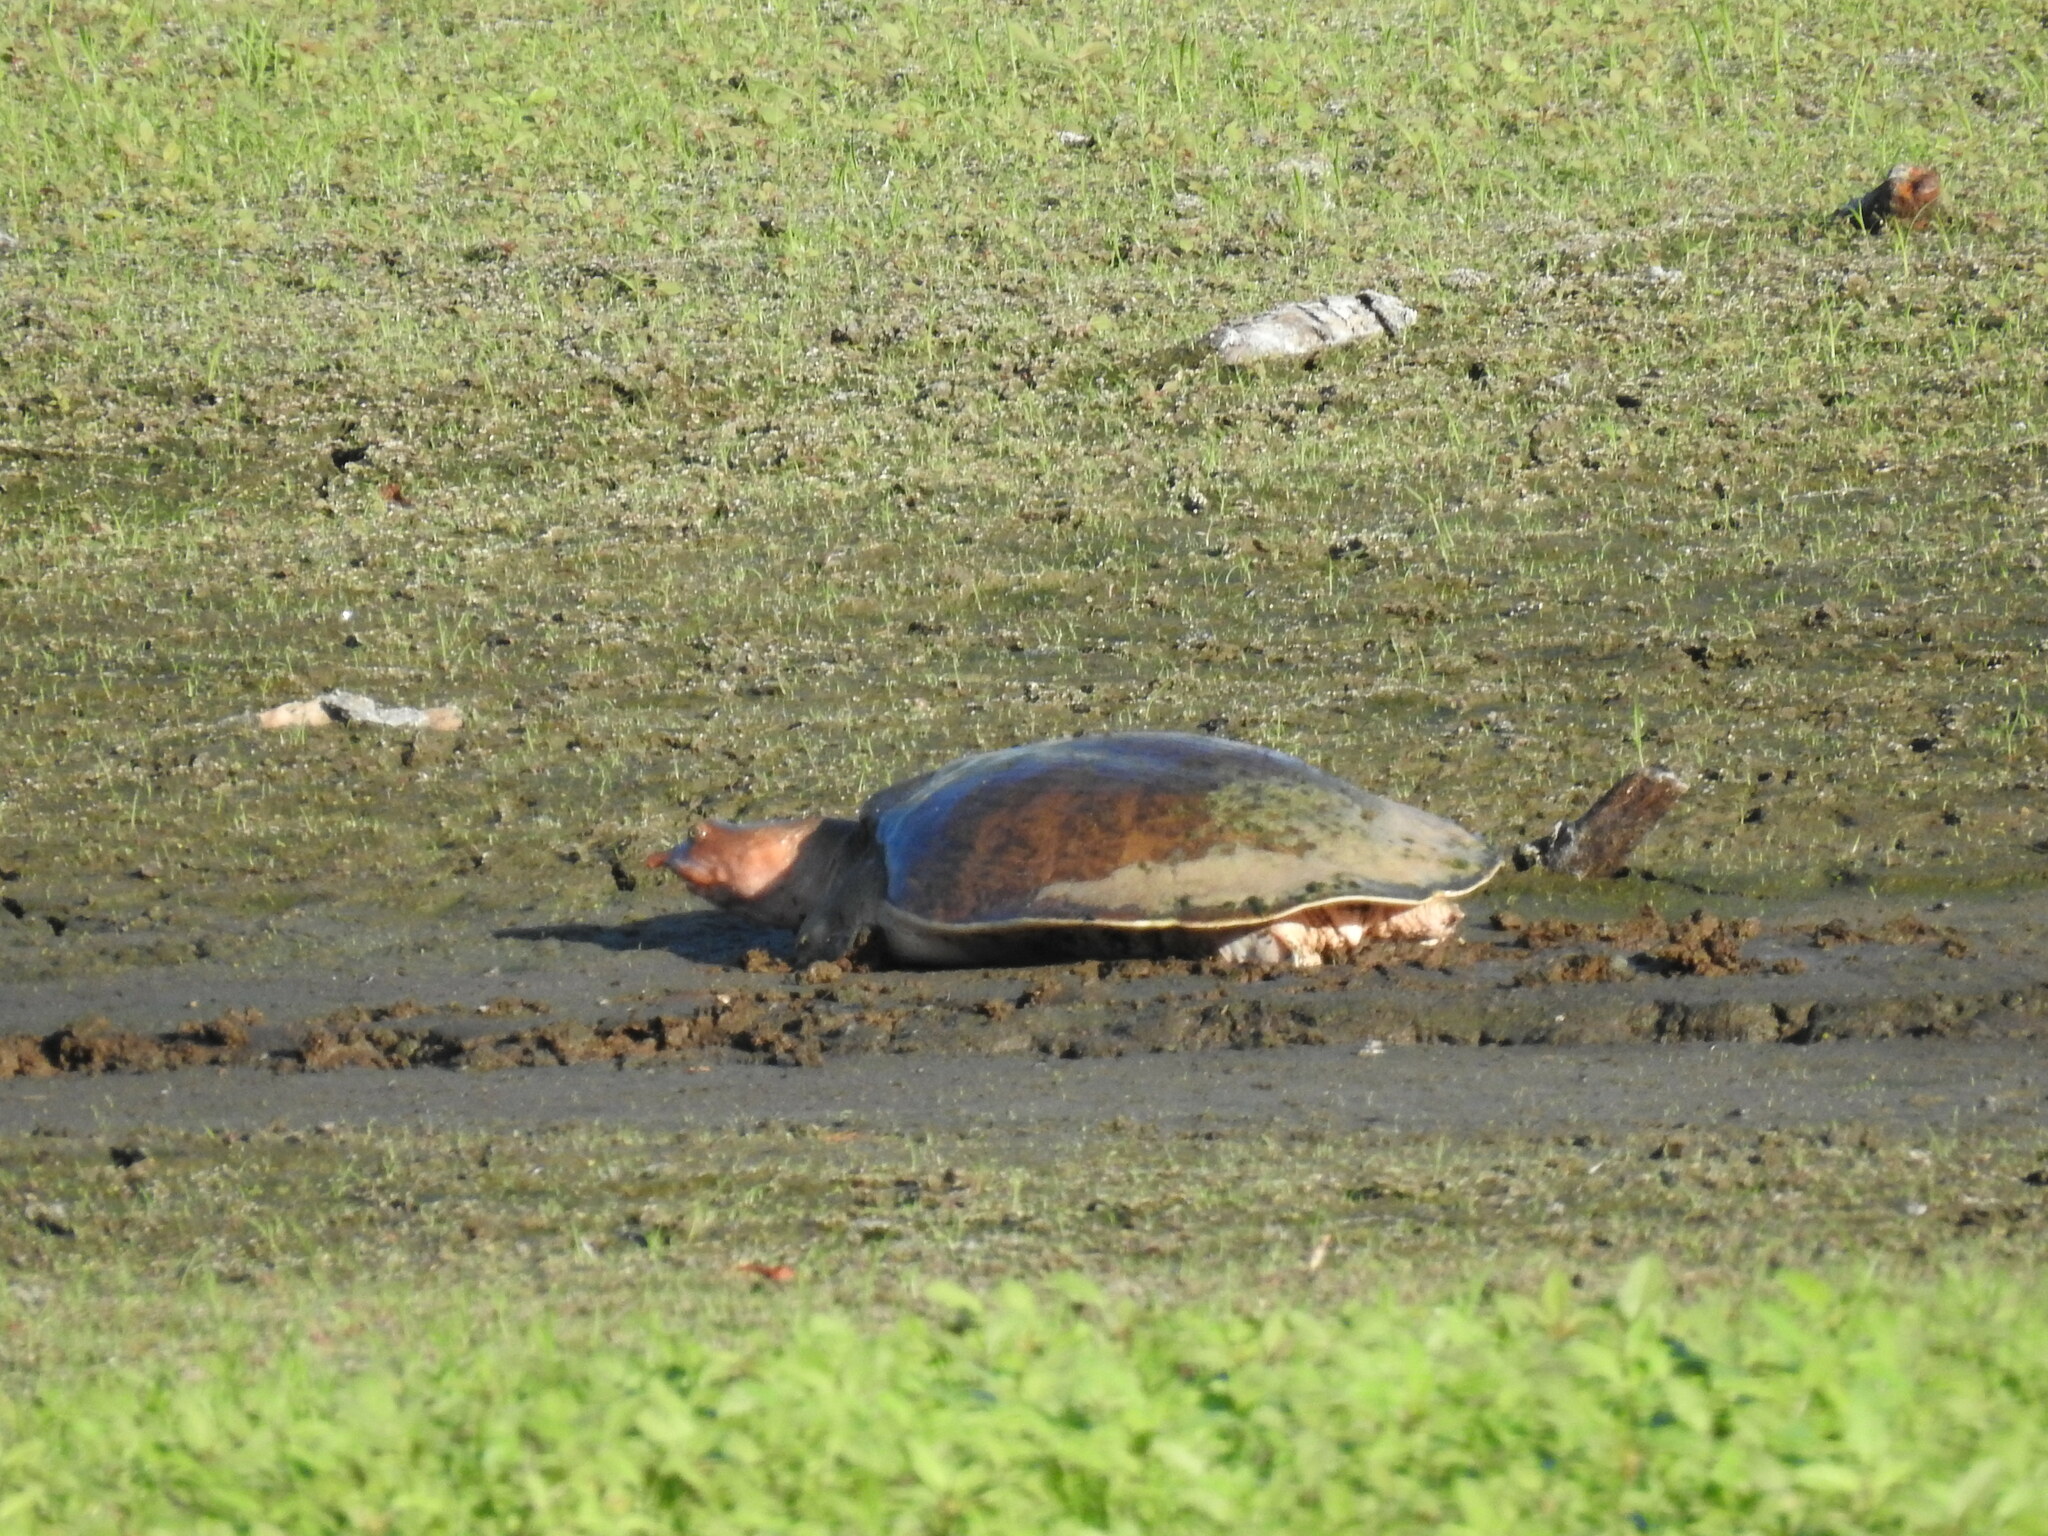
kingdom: Animalia
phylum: Chordata
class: Testudines
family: Trionychidae
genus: Apalone
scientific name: Apalone ferox
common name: Florida softshell turtle
